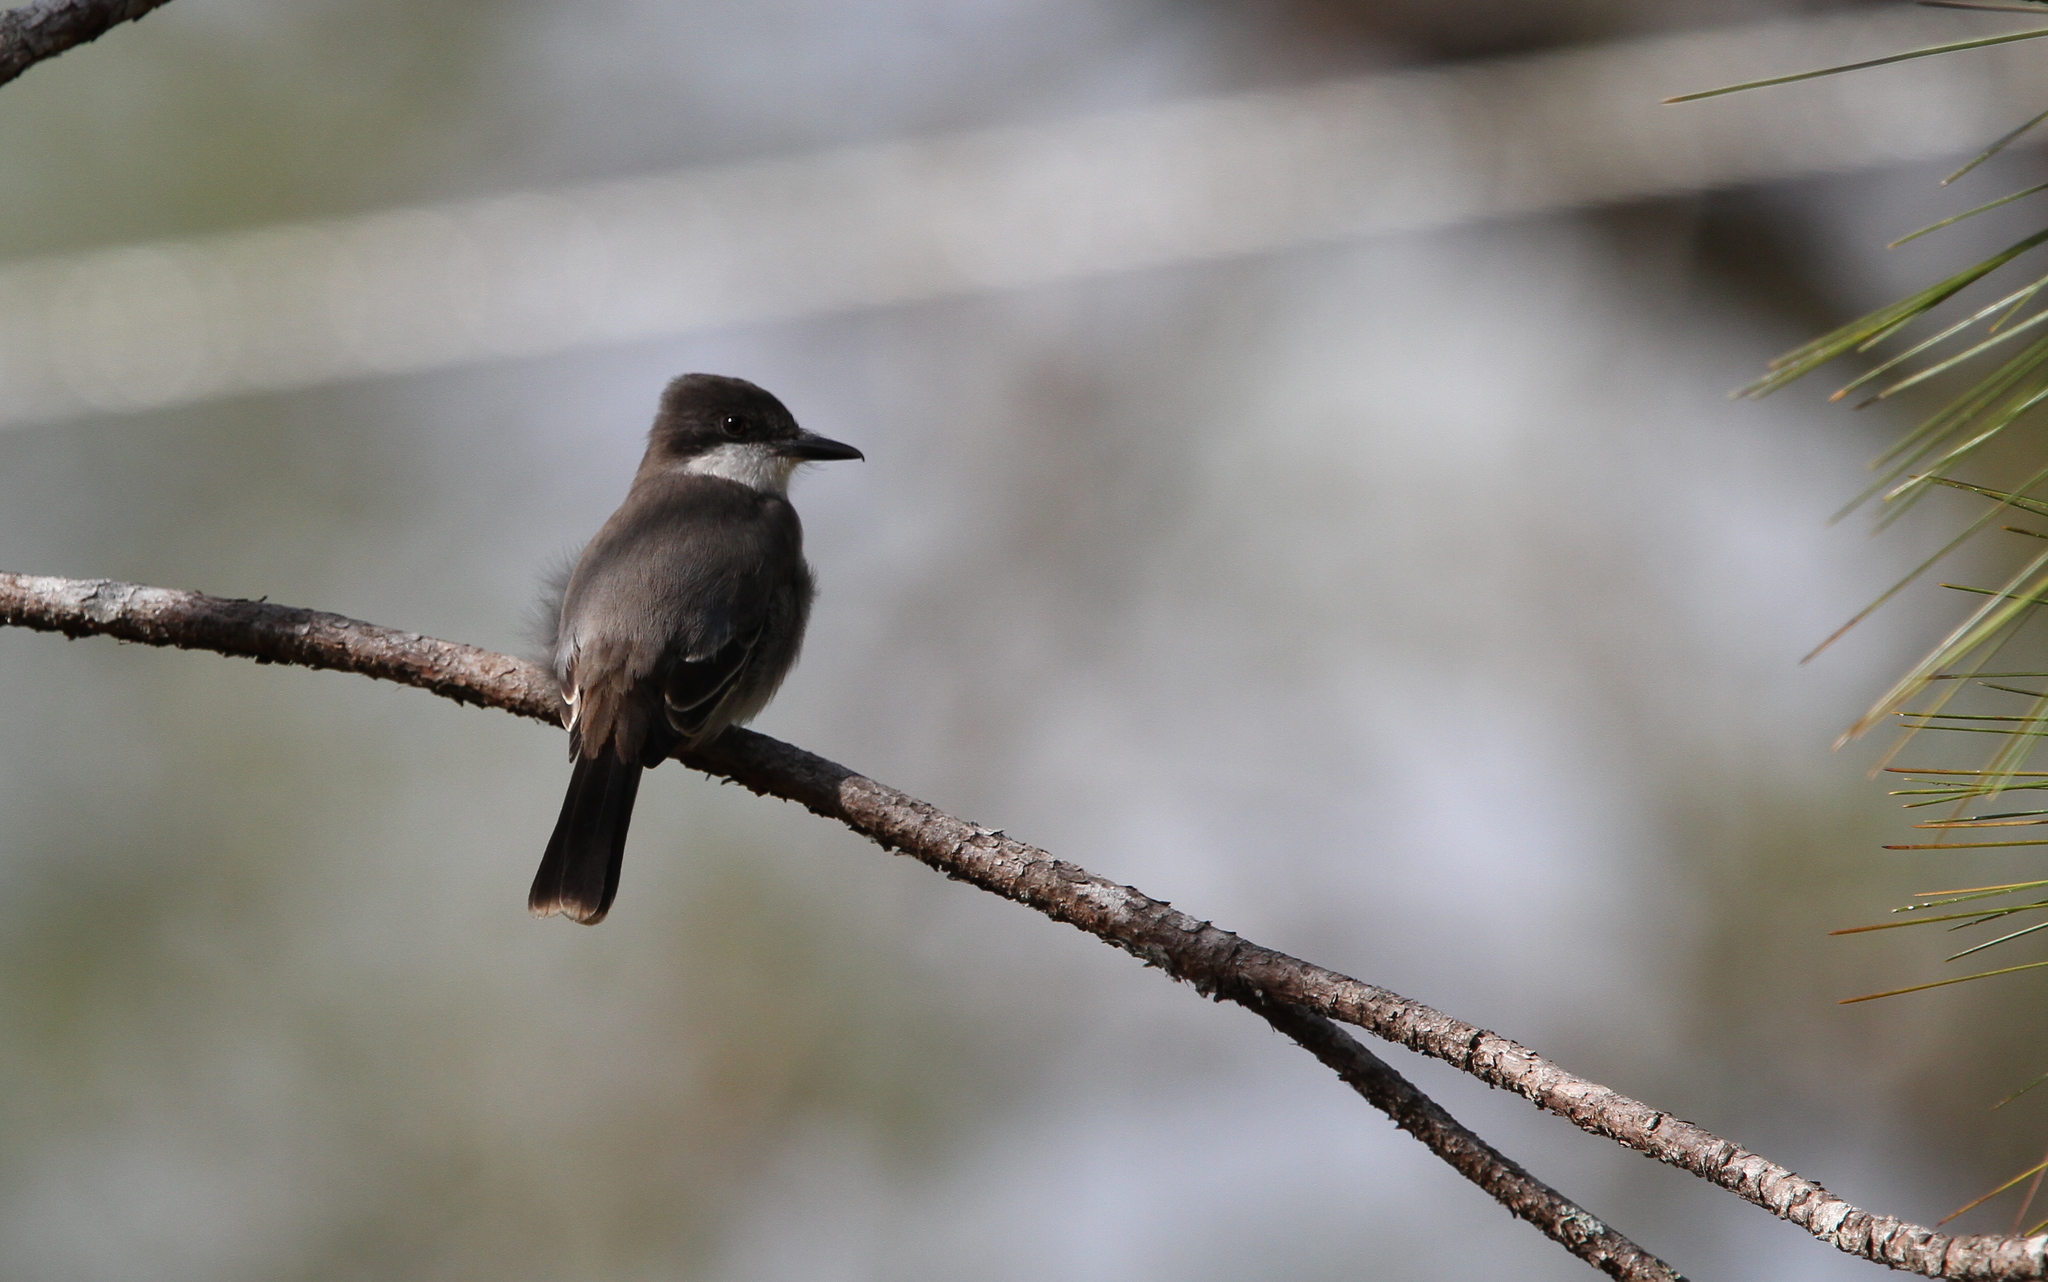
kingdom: Animalia
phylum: Chordata
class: Aves
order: Passeriformes
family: Tyrannidae
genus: Tyrannus
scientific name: Tyrannus caudifasciatus
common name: Loggerhead kingbird
